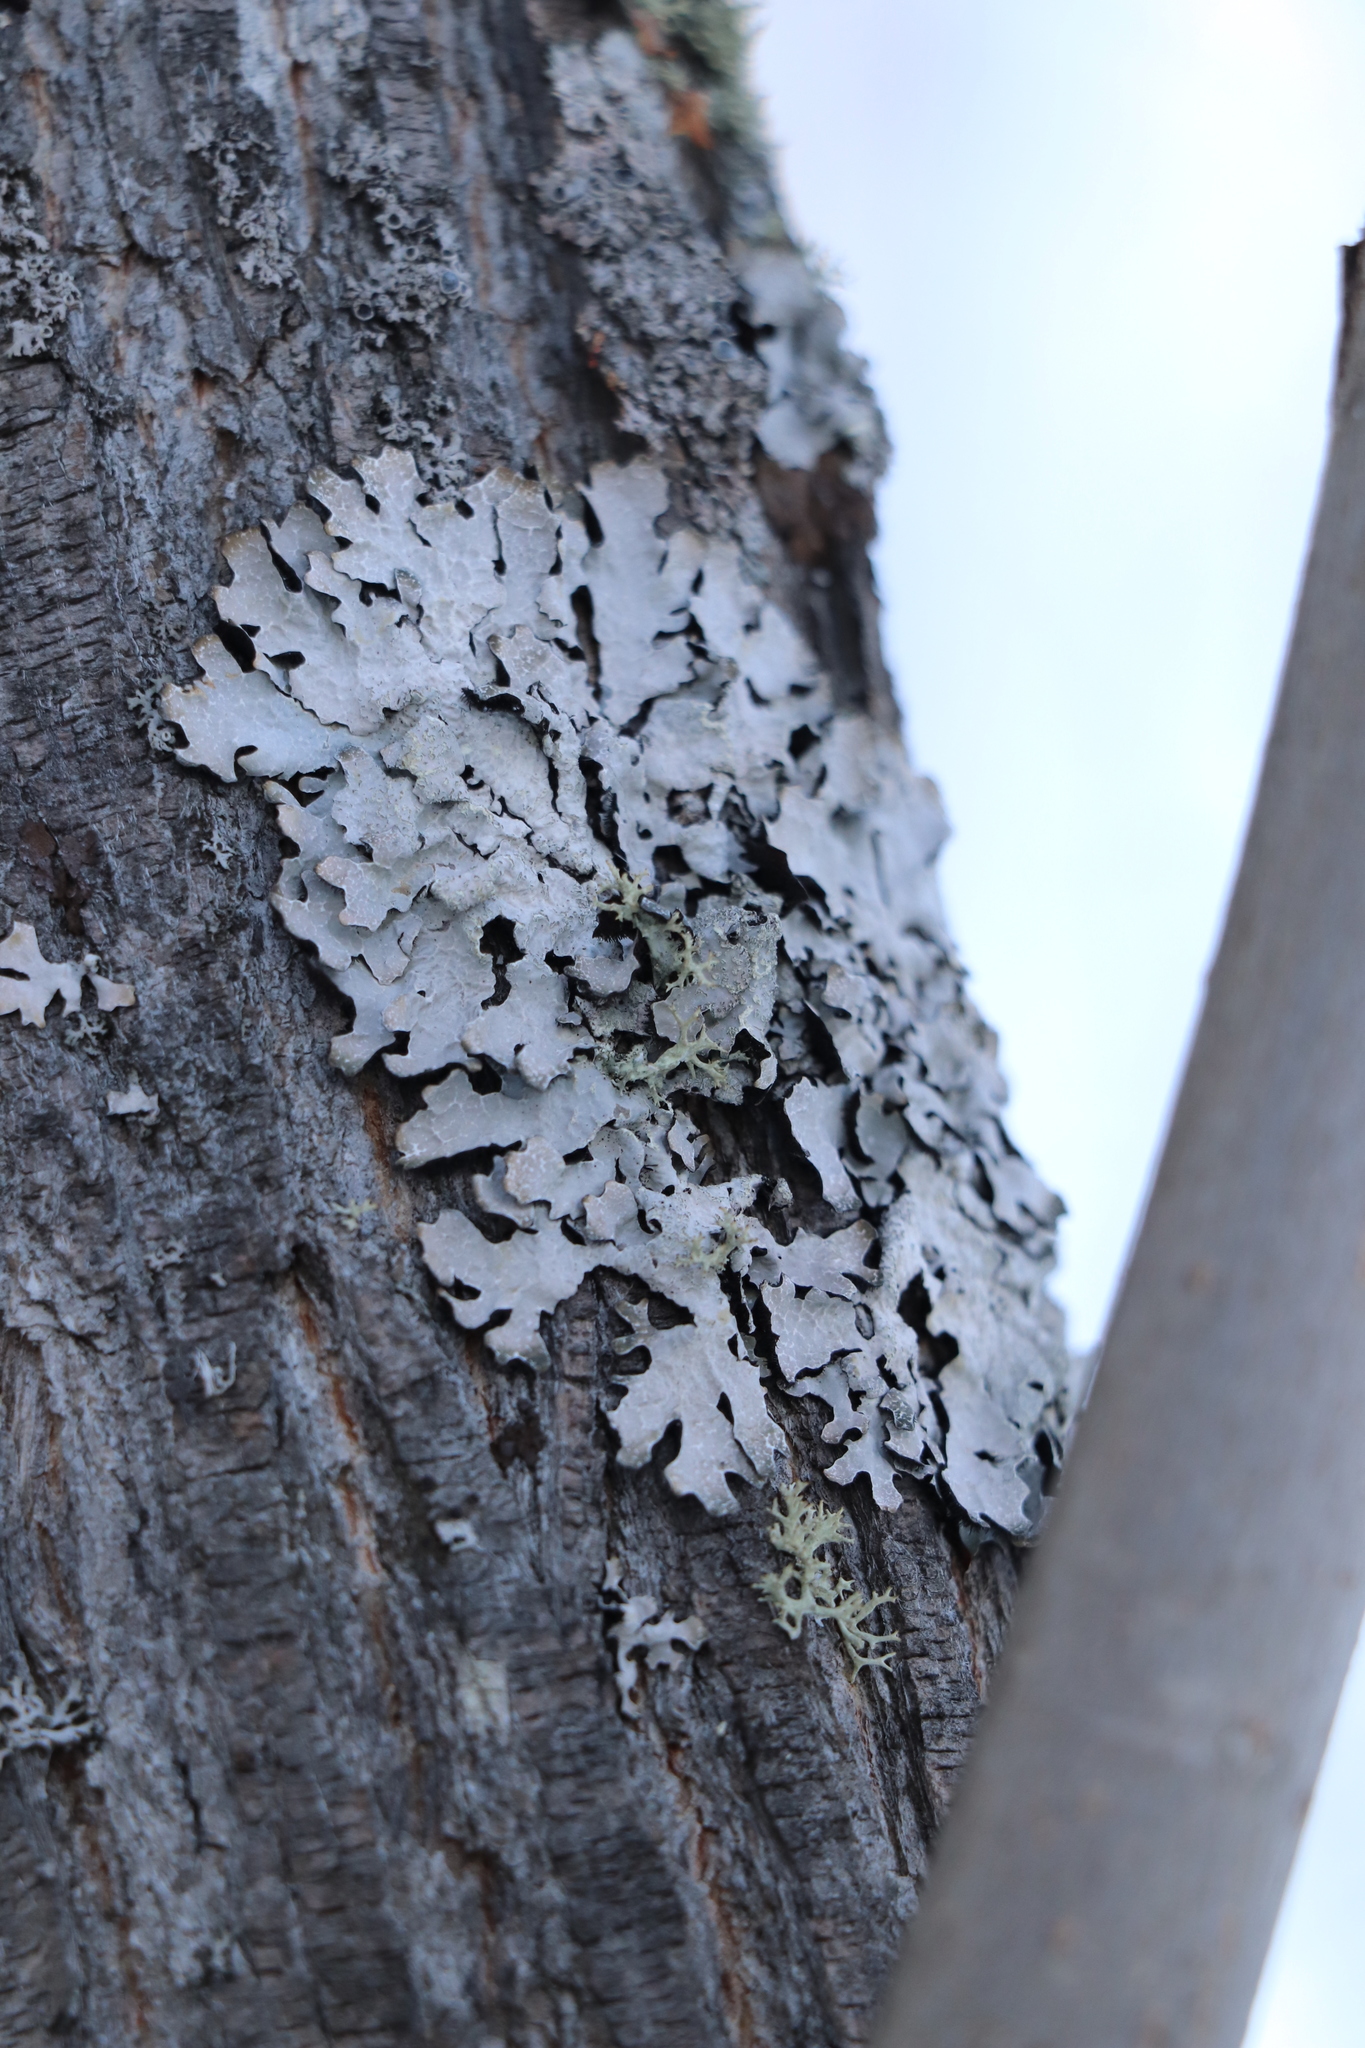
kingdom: Fungi
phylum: Ascomycota
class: Lecanoromycetes
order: Lecanorales
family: Parmeliaceae
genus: Parmelia
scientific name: Parmelia sulcata
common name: Netted shield lichen
